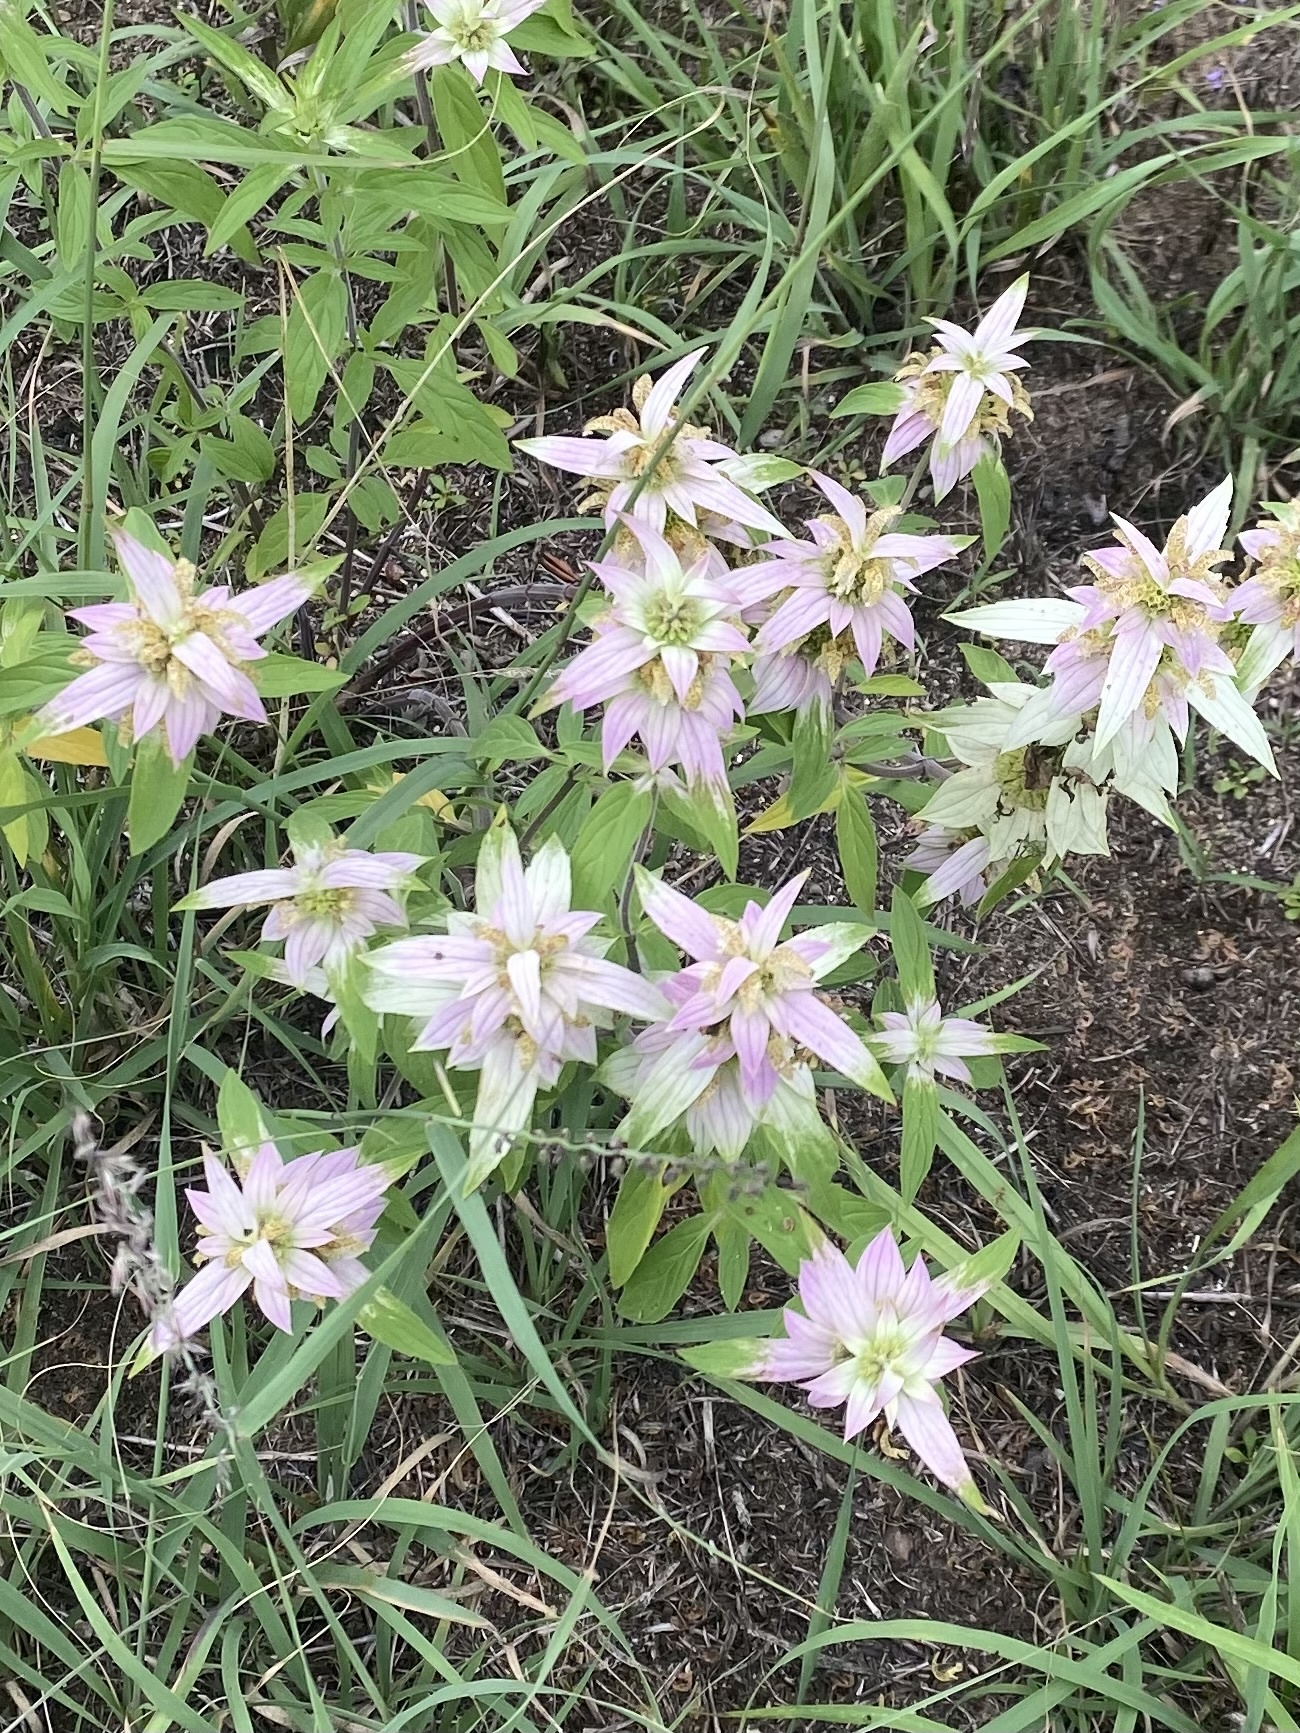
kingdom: Plantae
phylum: Tracheophyta
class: Magnoliopsida
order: Lamiales
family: Lamiaceae
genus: Monarda
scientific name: Monarda punctata
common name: Dotted monarda
